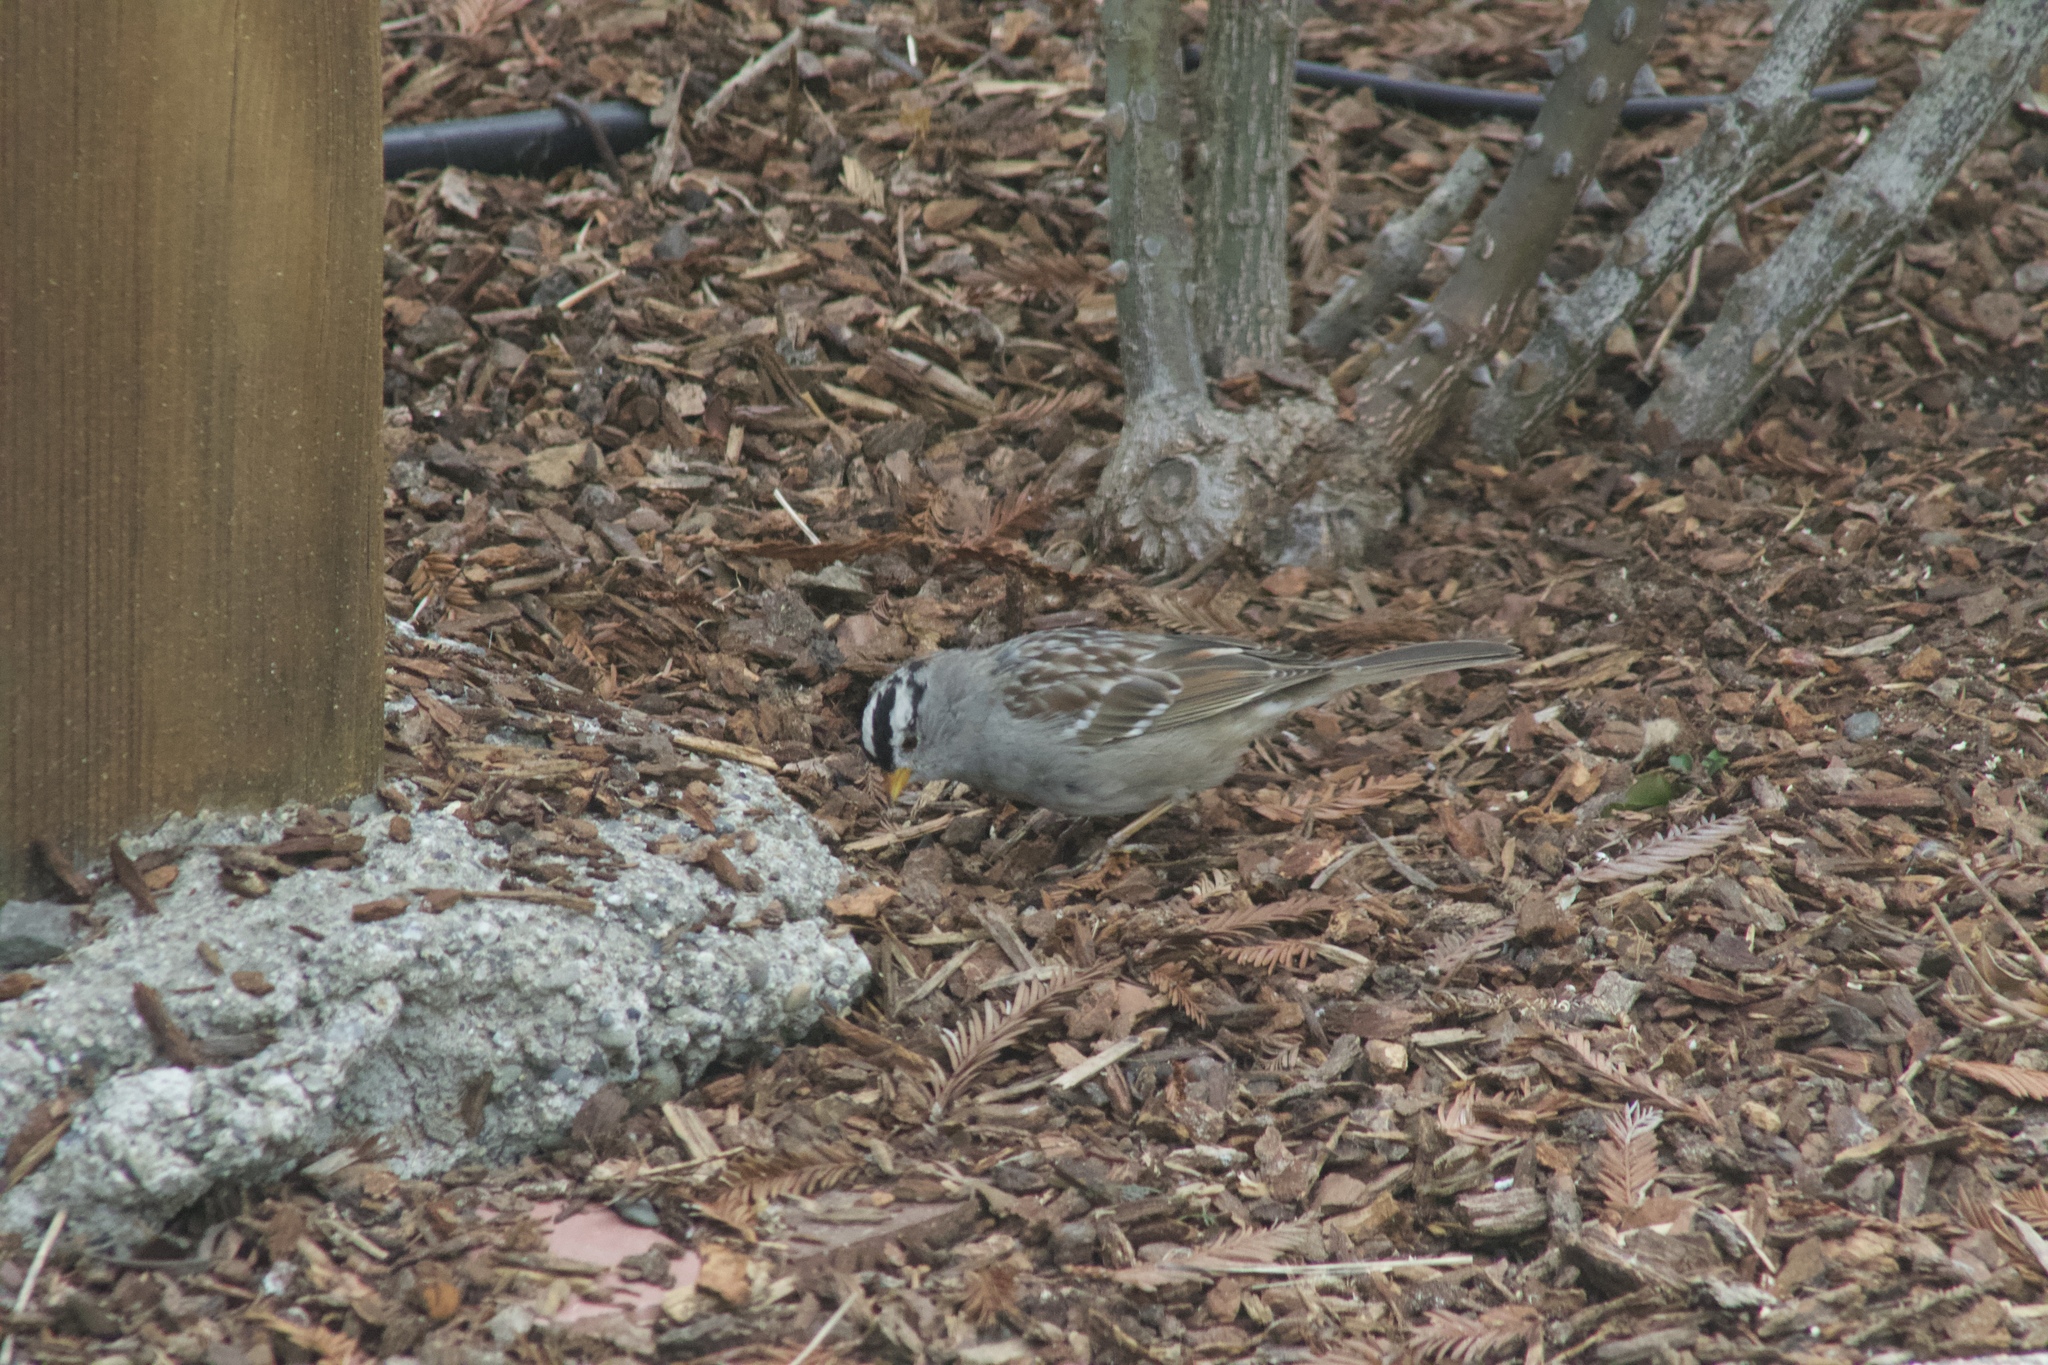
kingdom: Animalia
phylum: Chordata
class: Aves
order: Passeriformes
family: Passerellidae
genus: Zonotrichia
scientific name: Zonotrichia leucophrys
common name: White-crowned sparrow
